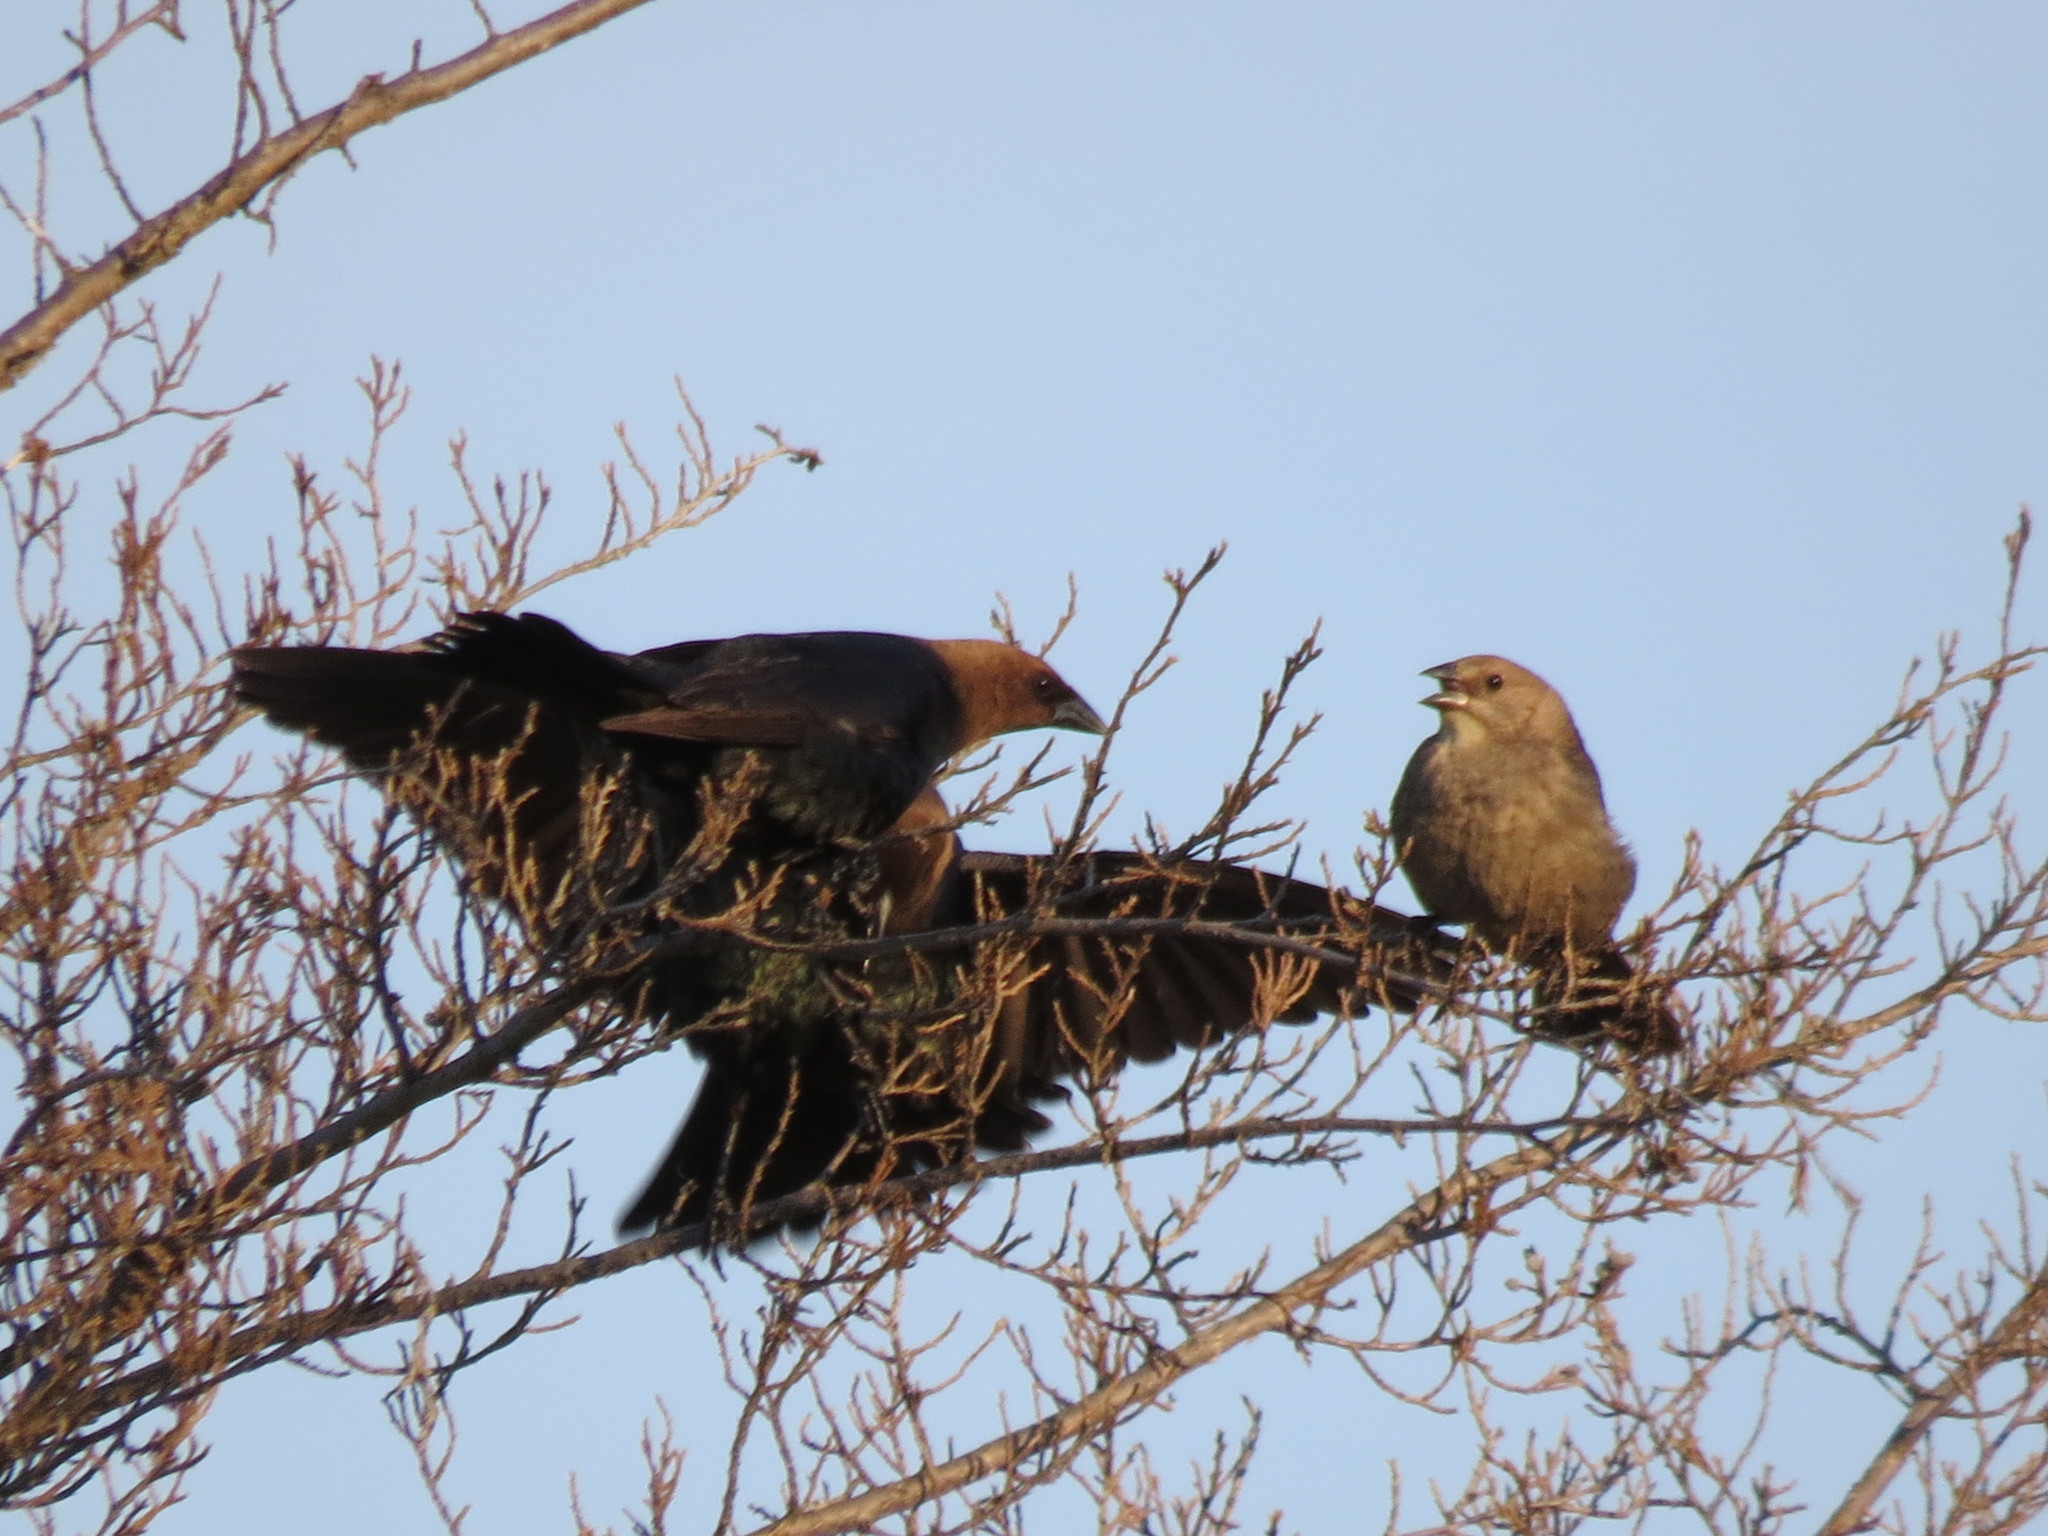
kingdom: Animalia
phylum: Chordata
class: Aves
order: Passeriformes
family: Icteridae
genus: Molothrus
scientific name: Molothrus ater
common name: Brown-headed cowbird
